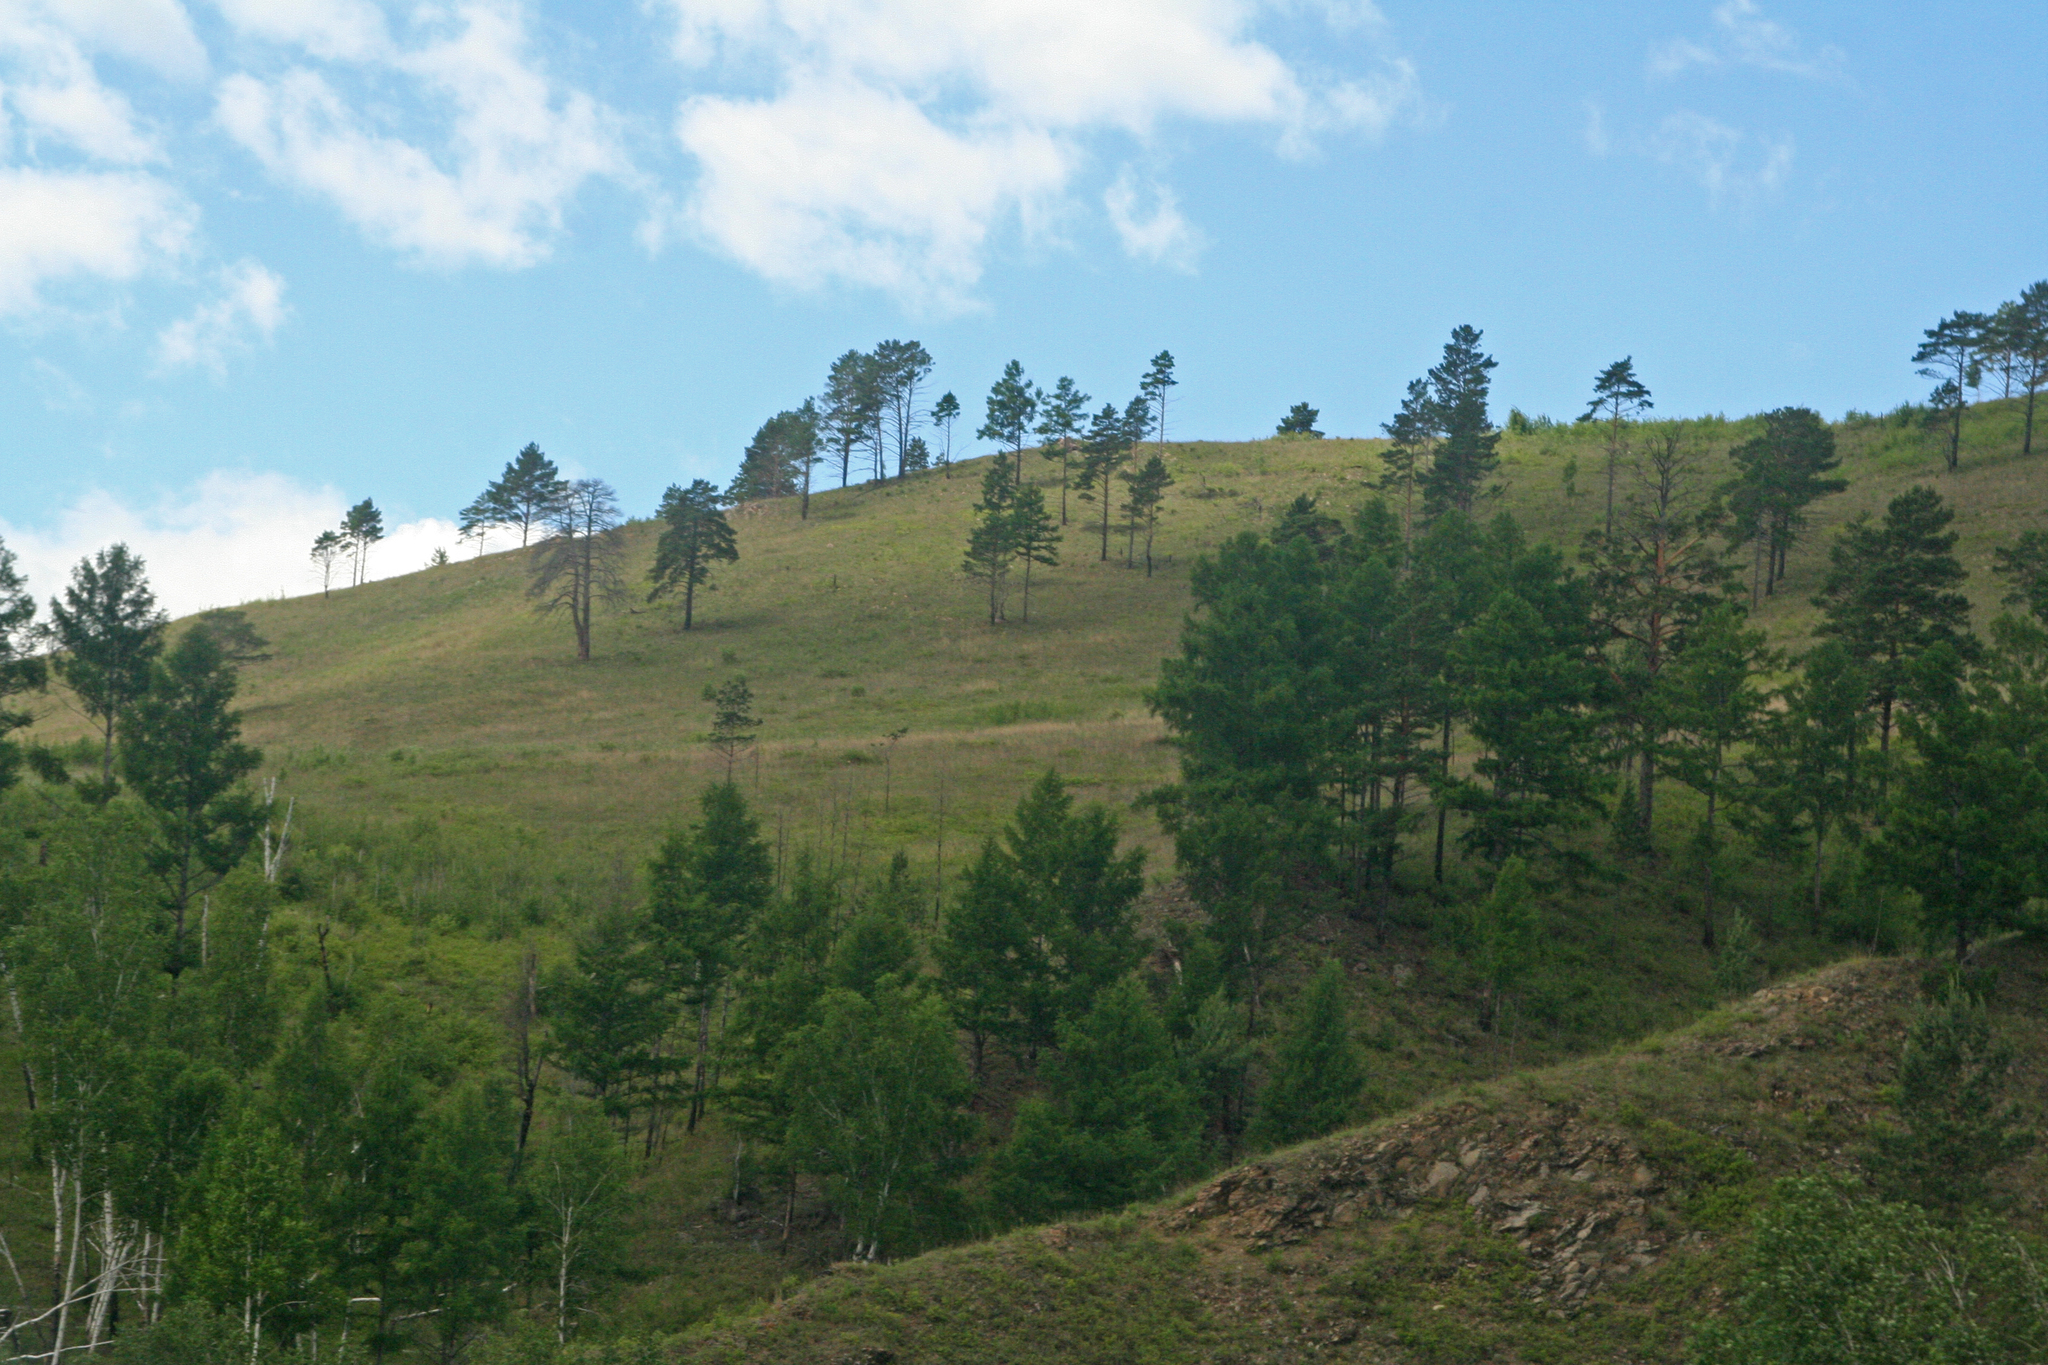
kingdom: Plantae
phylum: Tracheophyta
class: Pinopsida
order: Pinales
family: Pinaceae
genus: Pinus
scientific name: Pinus sylvestris
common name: Scots pine
